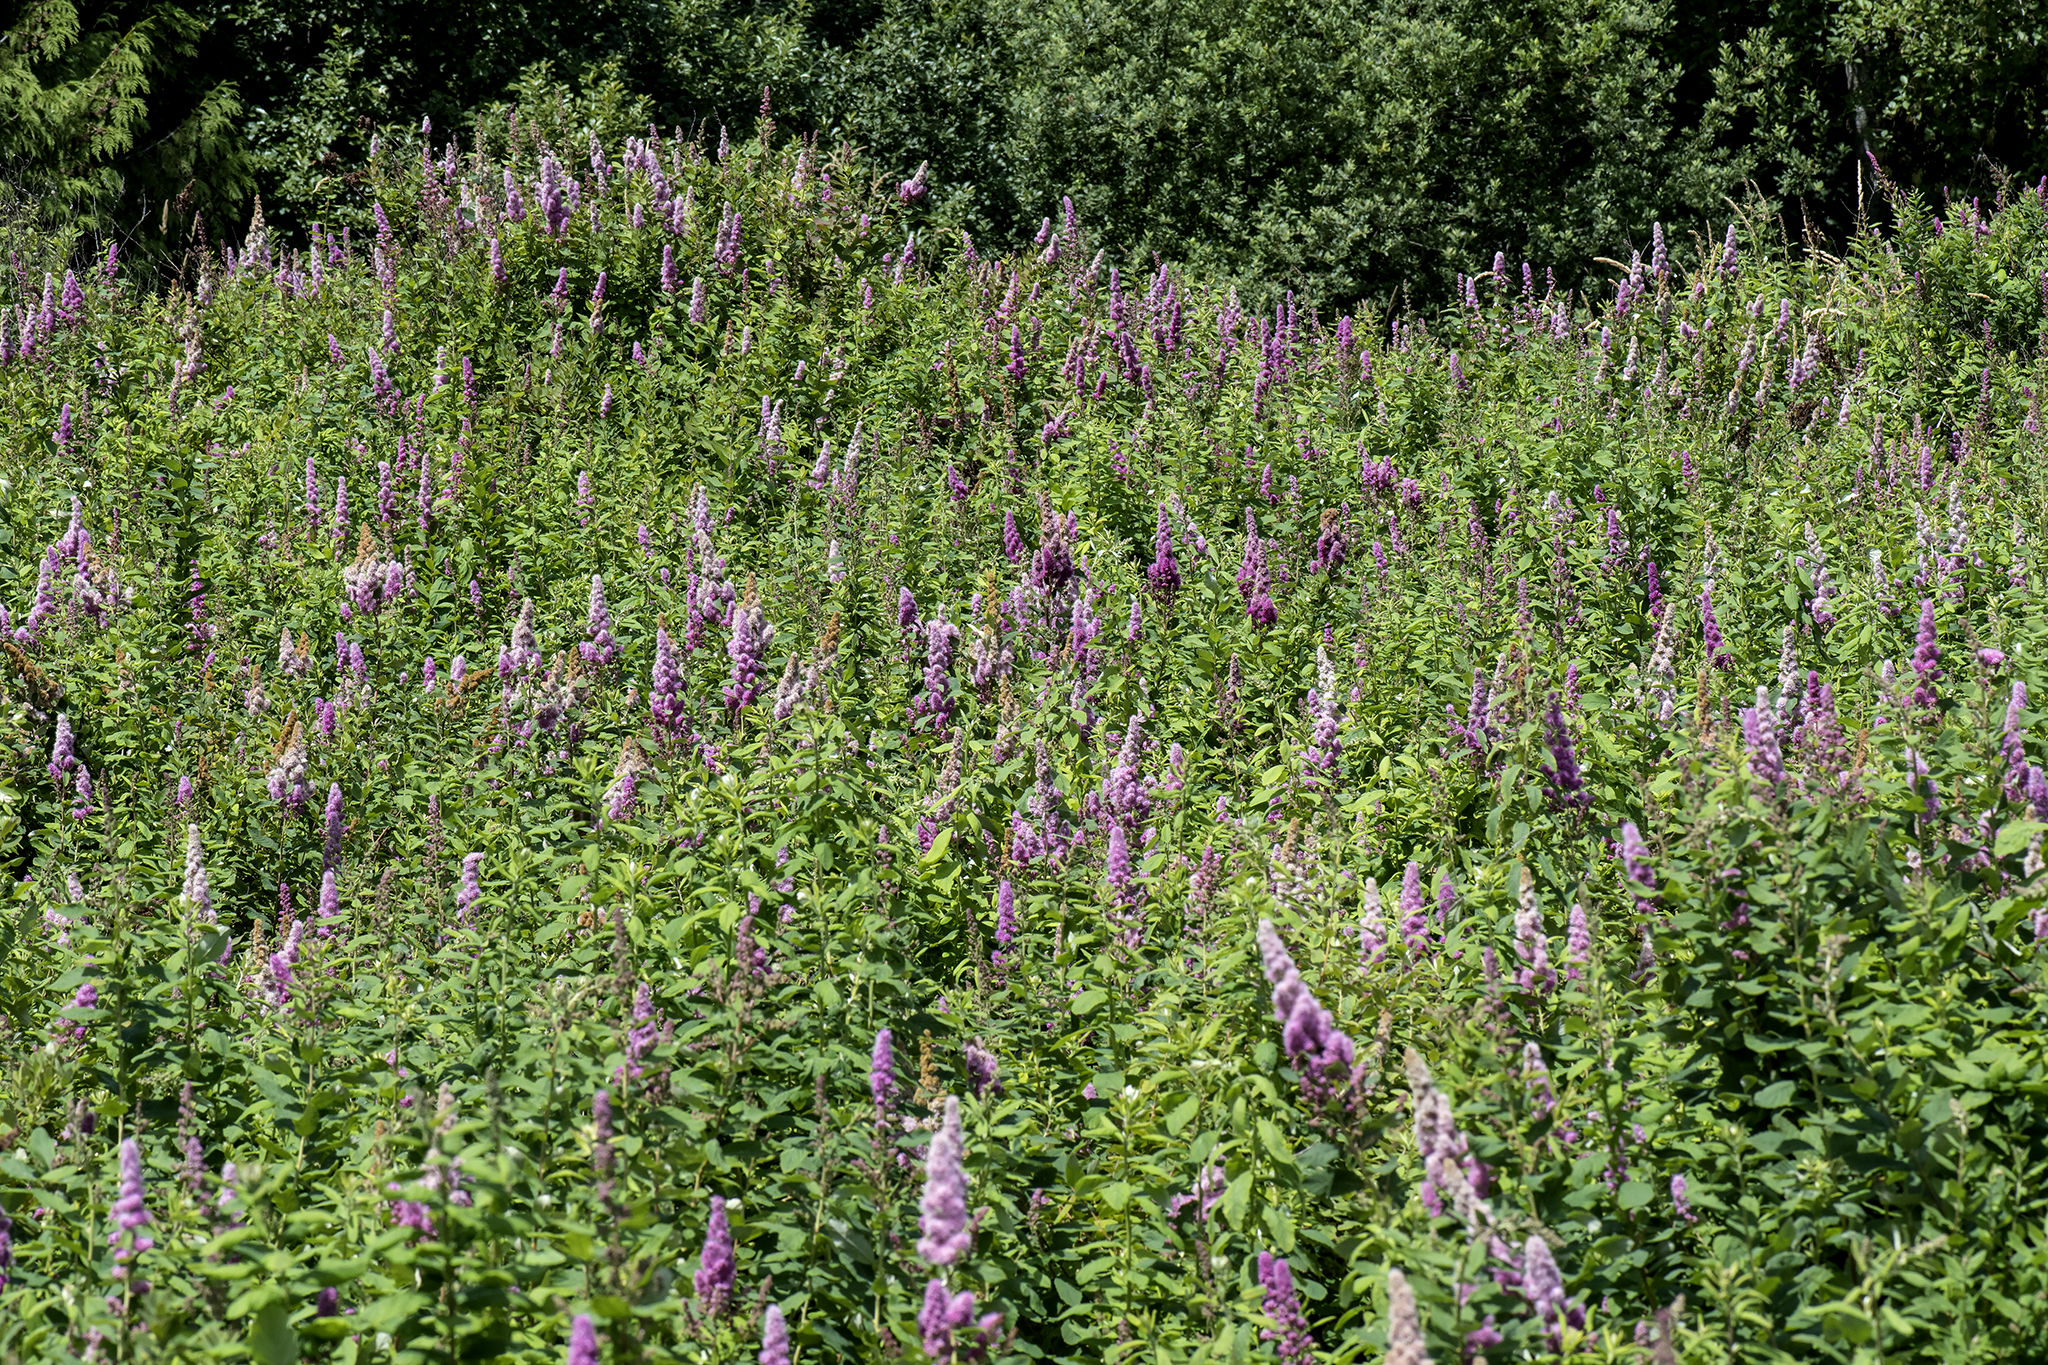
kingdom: Plantae
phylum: Tracheophyta
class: Magnoliopsida
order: Rosales
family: Rosaceae
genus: Spiraea
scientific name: Spiraea douglasii
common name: Steeplebush
